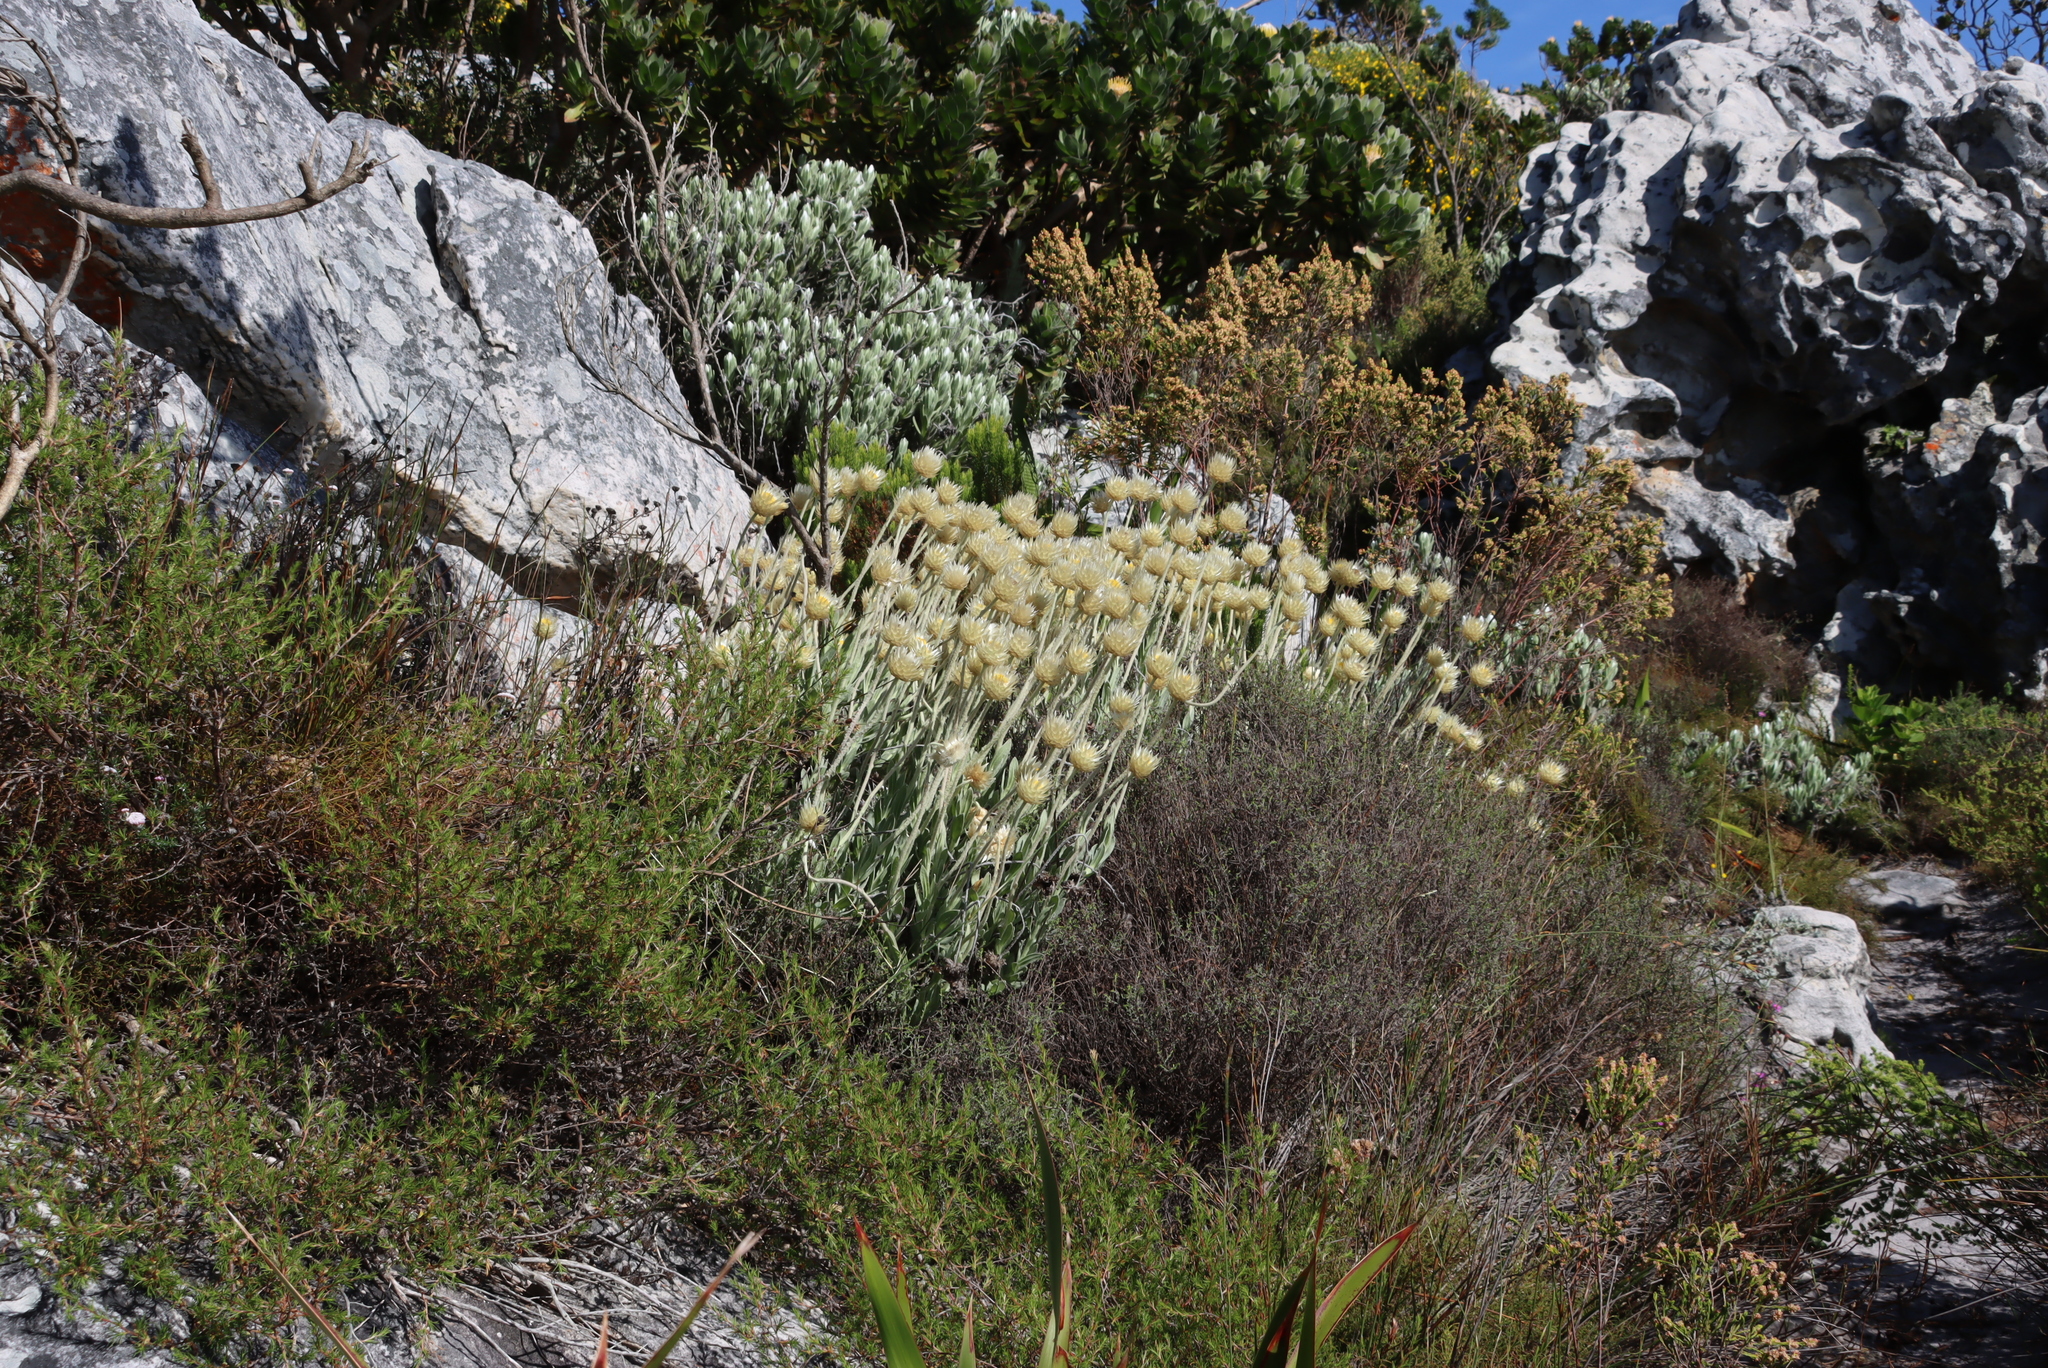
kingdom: Plantae
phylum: Tracheophyta
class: Magnoliopsida
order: Asterales
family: Asteraceae
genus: Syncarpha
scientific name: Syncarpha speciosissima
